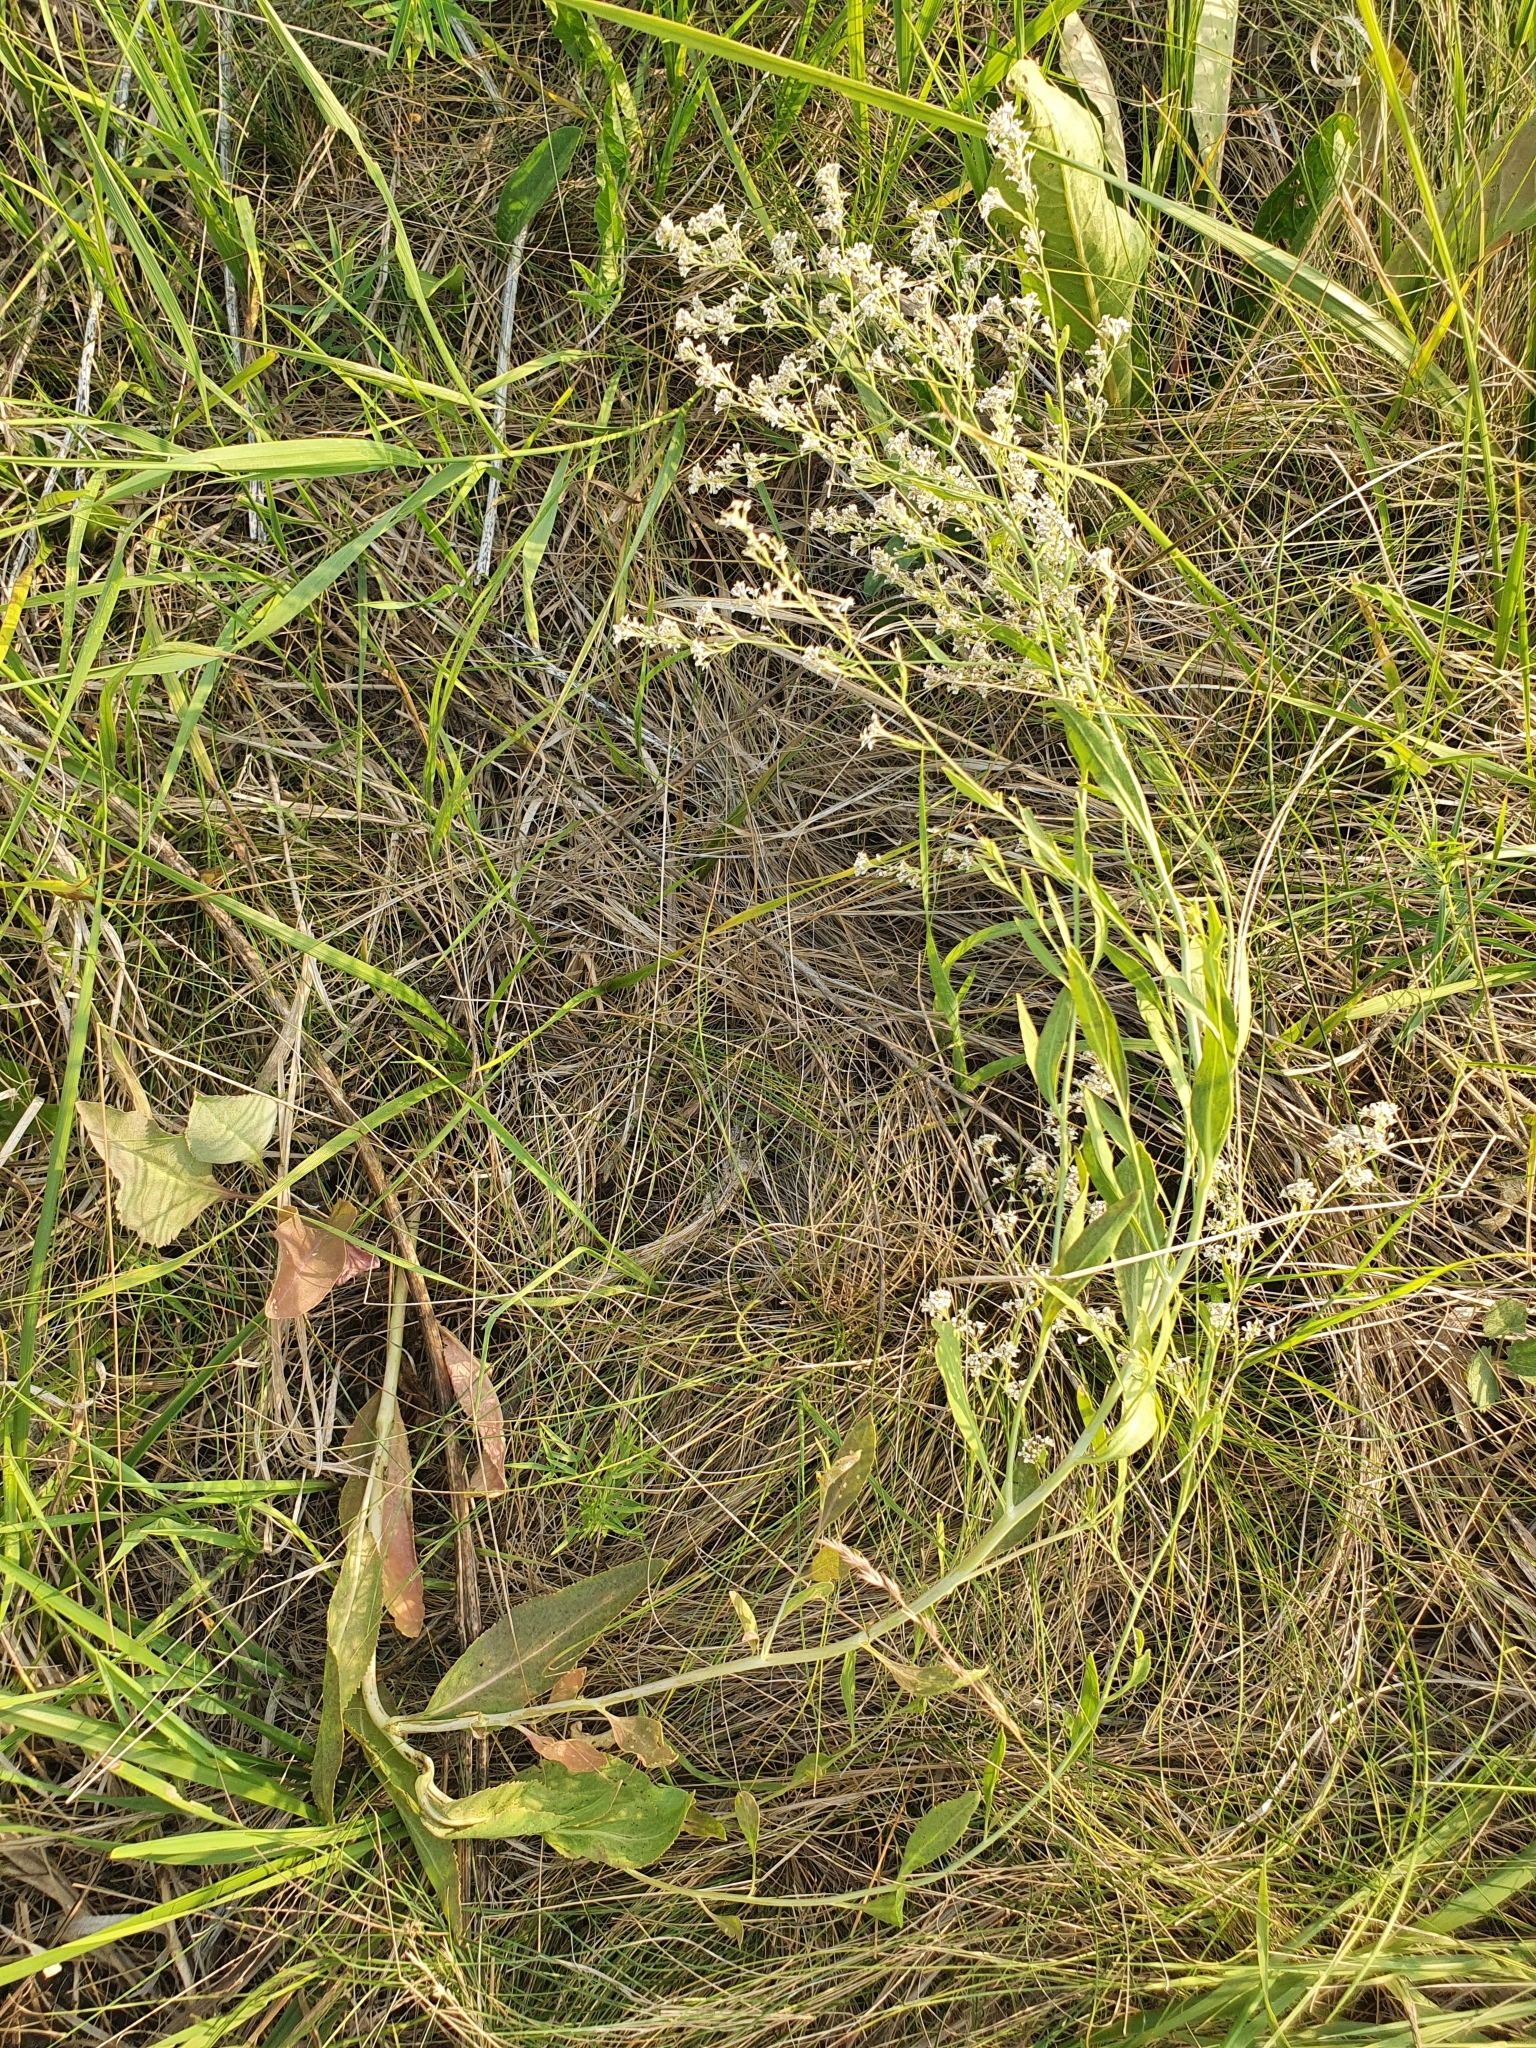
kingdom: Plantae
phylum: Tracheophyta
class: Magnoliopsida
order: Brassicales
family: Brassicaceae
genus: Lepidium
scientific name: Lepidium latifolium
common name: Dittander
